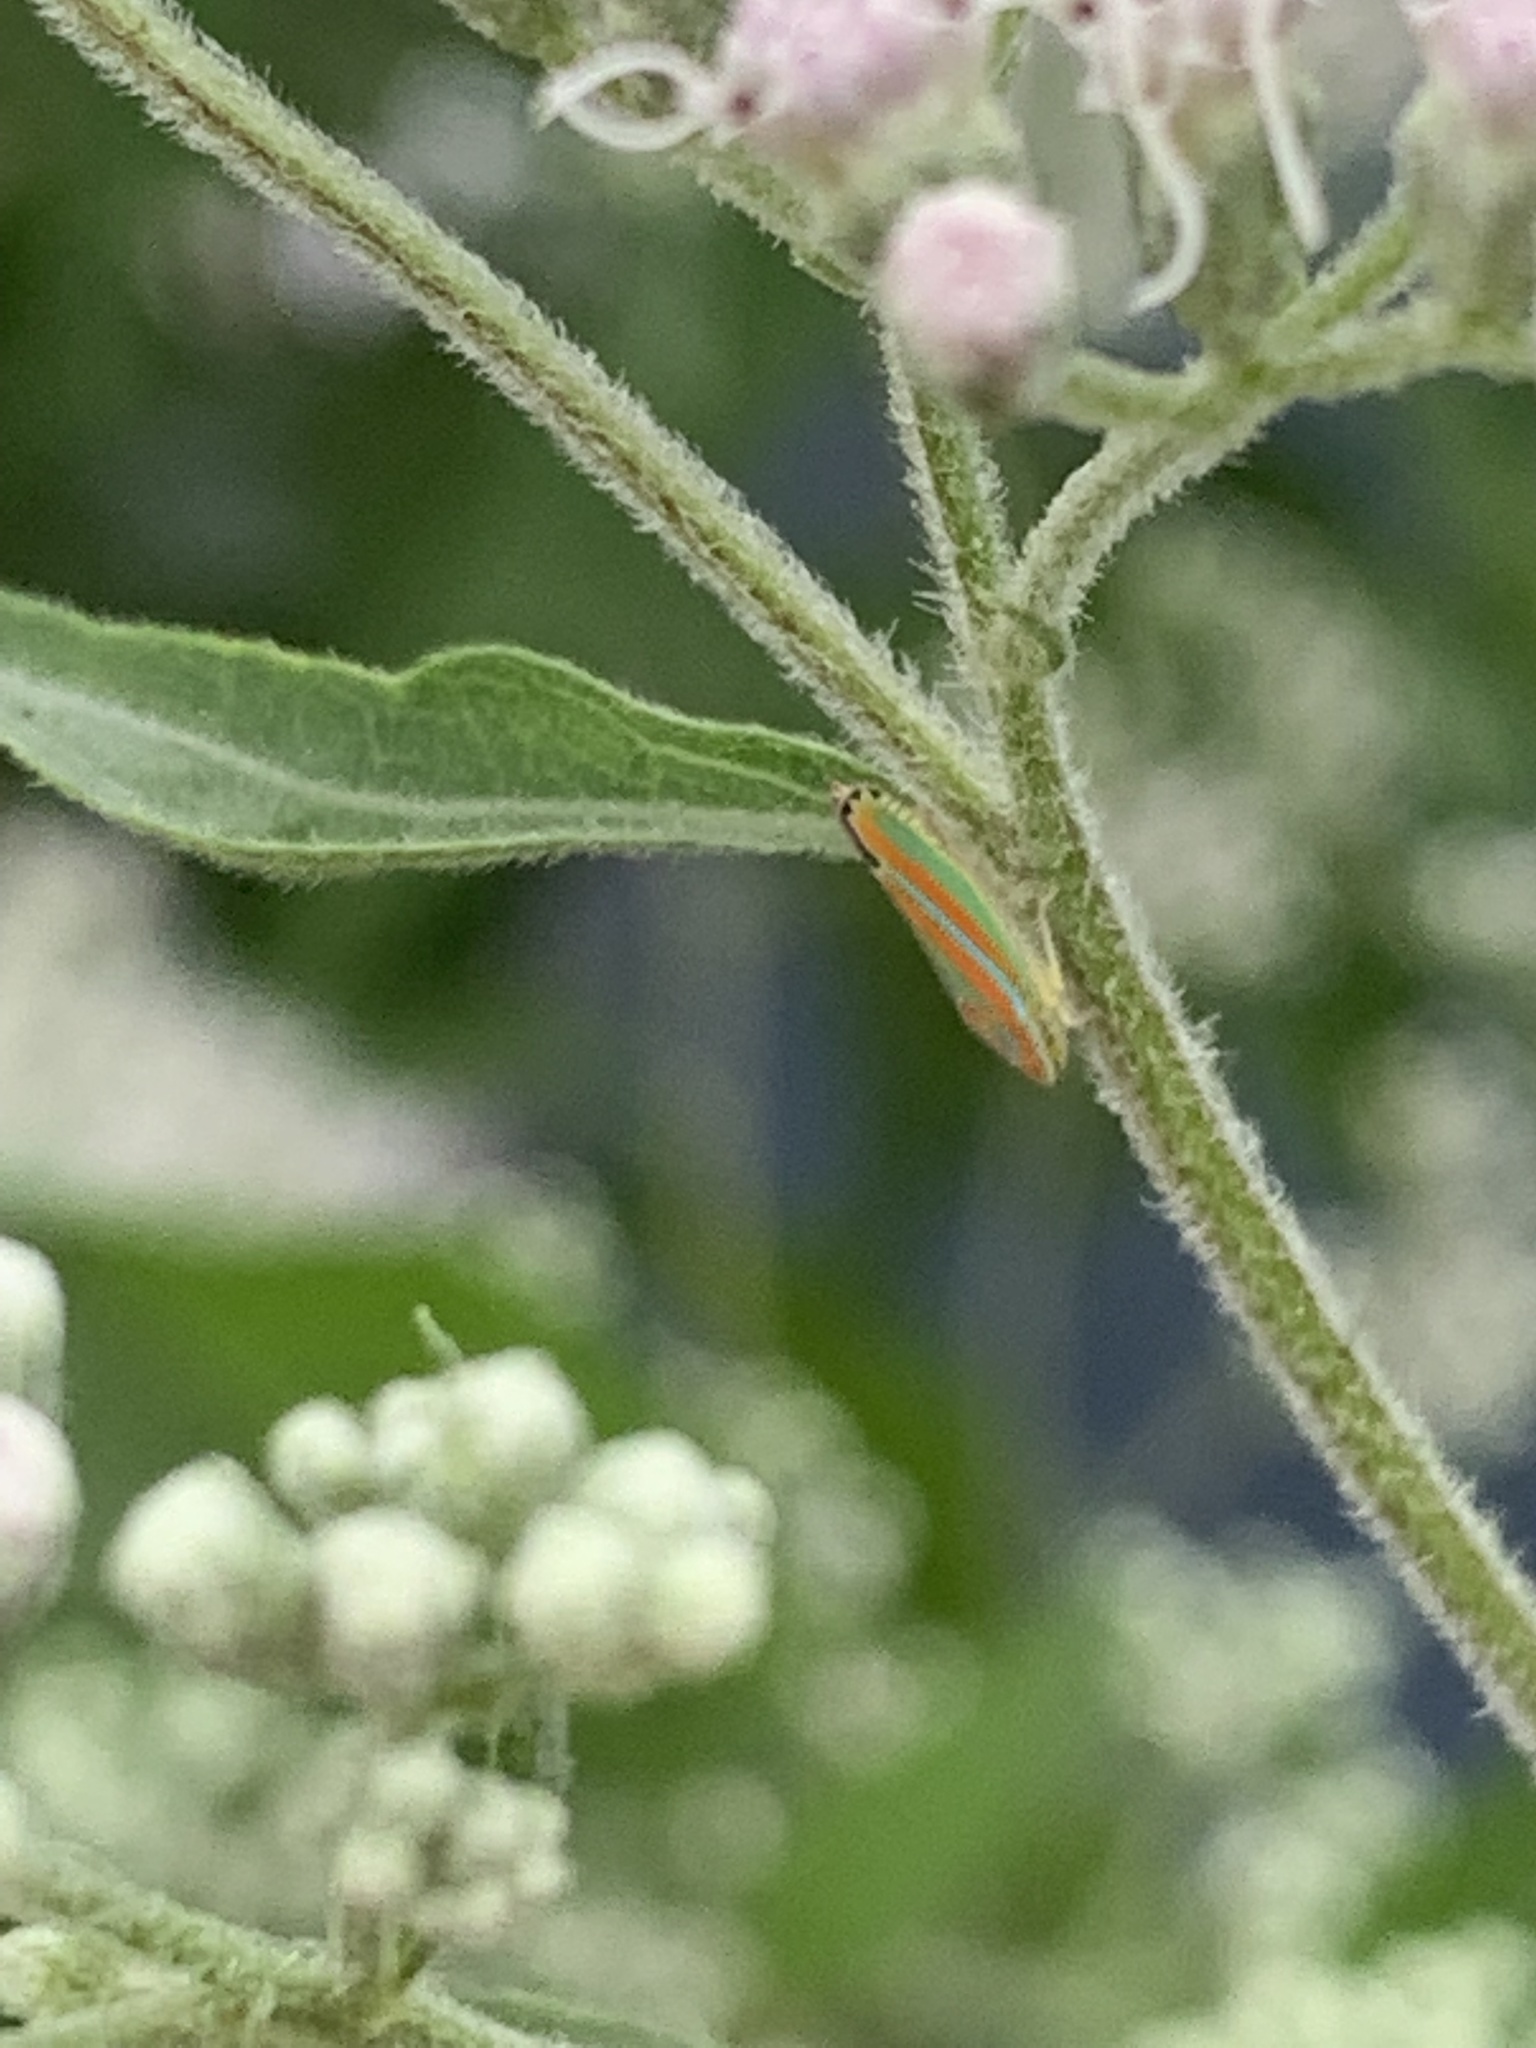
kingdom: Animalia
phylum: Arthropoda
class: Insecta
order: Hemiptera
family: Cicadellidae
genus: Graphocephala
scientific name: Graphocephala versuta
